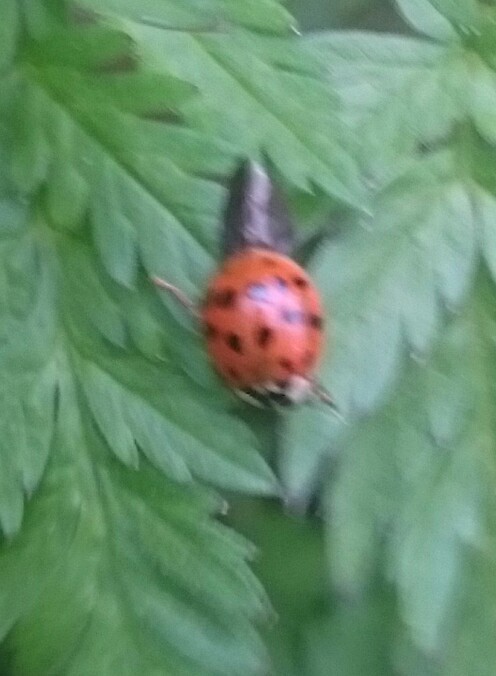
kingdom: Animalia
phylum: Arthropoda
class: Insecta
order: Coleoptera
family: Coccinellidae
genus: Harmonia
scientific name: Harmonia axyridis
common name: Harlequin ladybird
